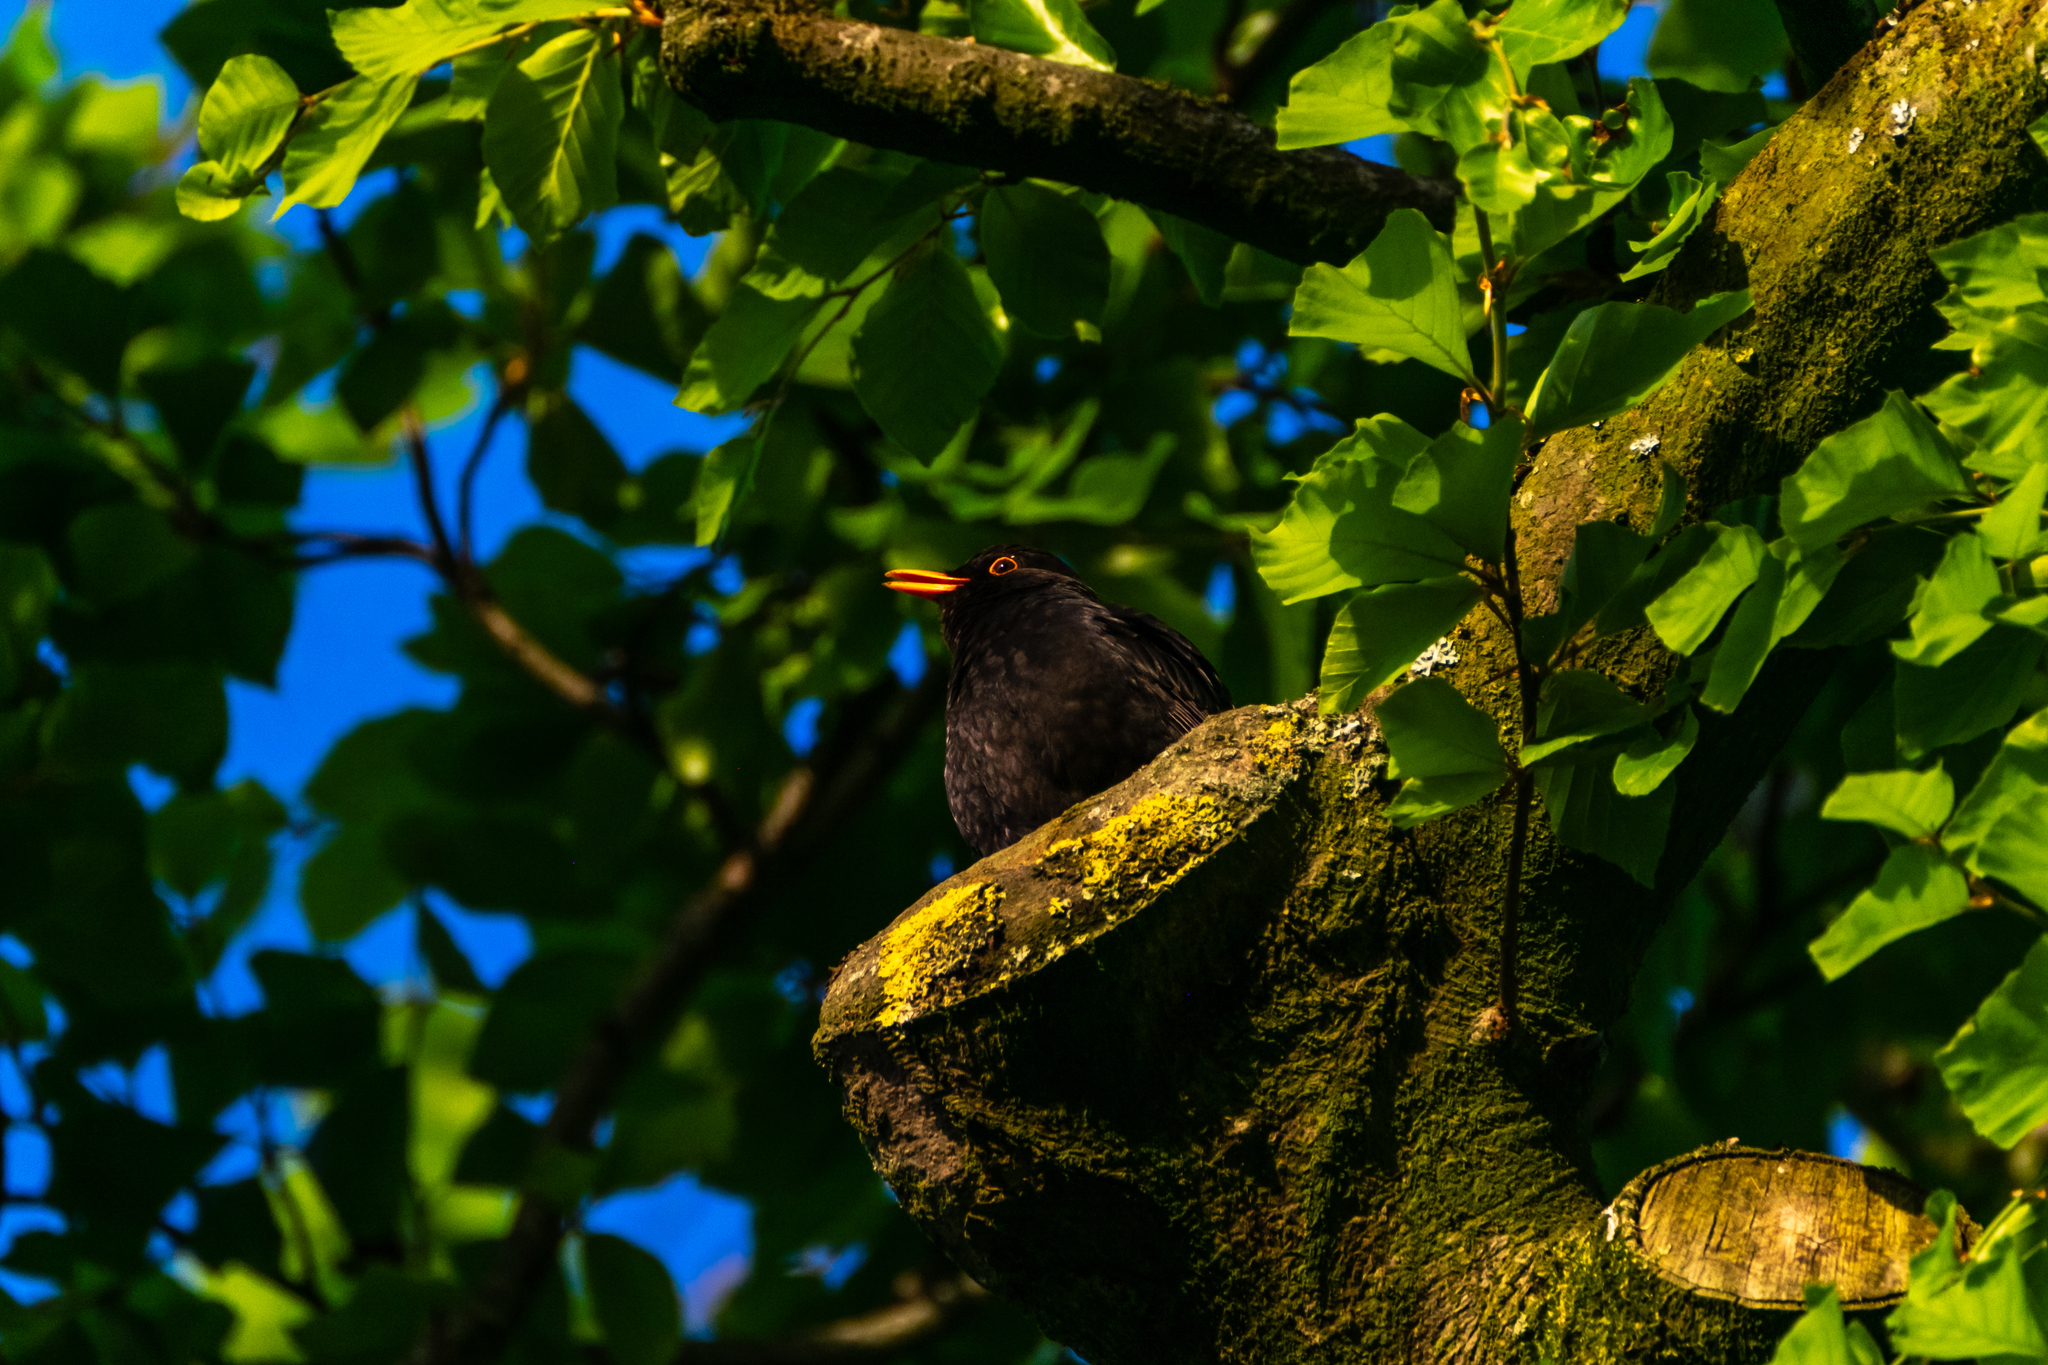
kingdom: Animalia
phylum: Chordata
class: Aves
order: Passeriformes
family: Turdidae
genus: Turdus
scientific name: Turdus merula
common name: Common blackbird
